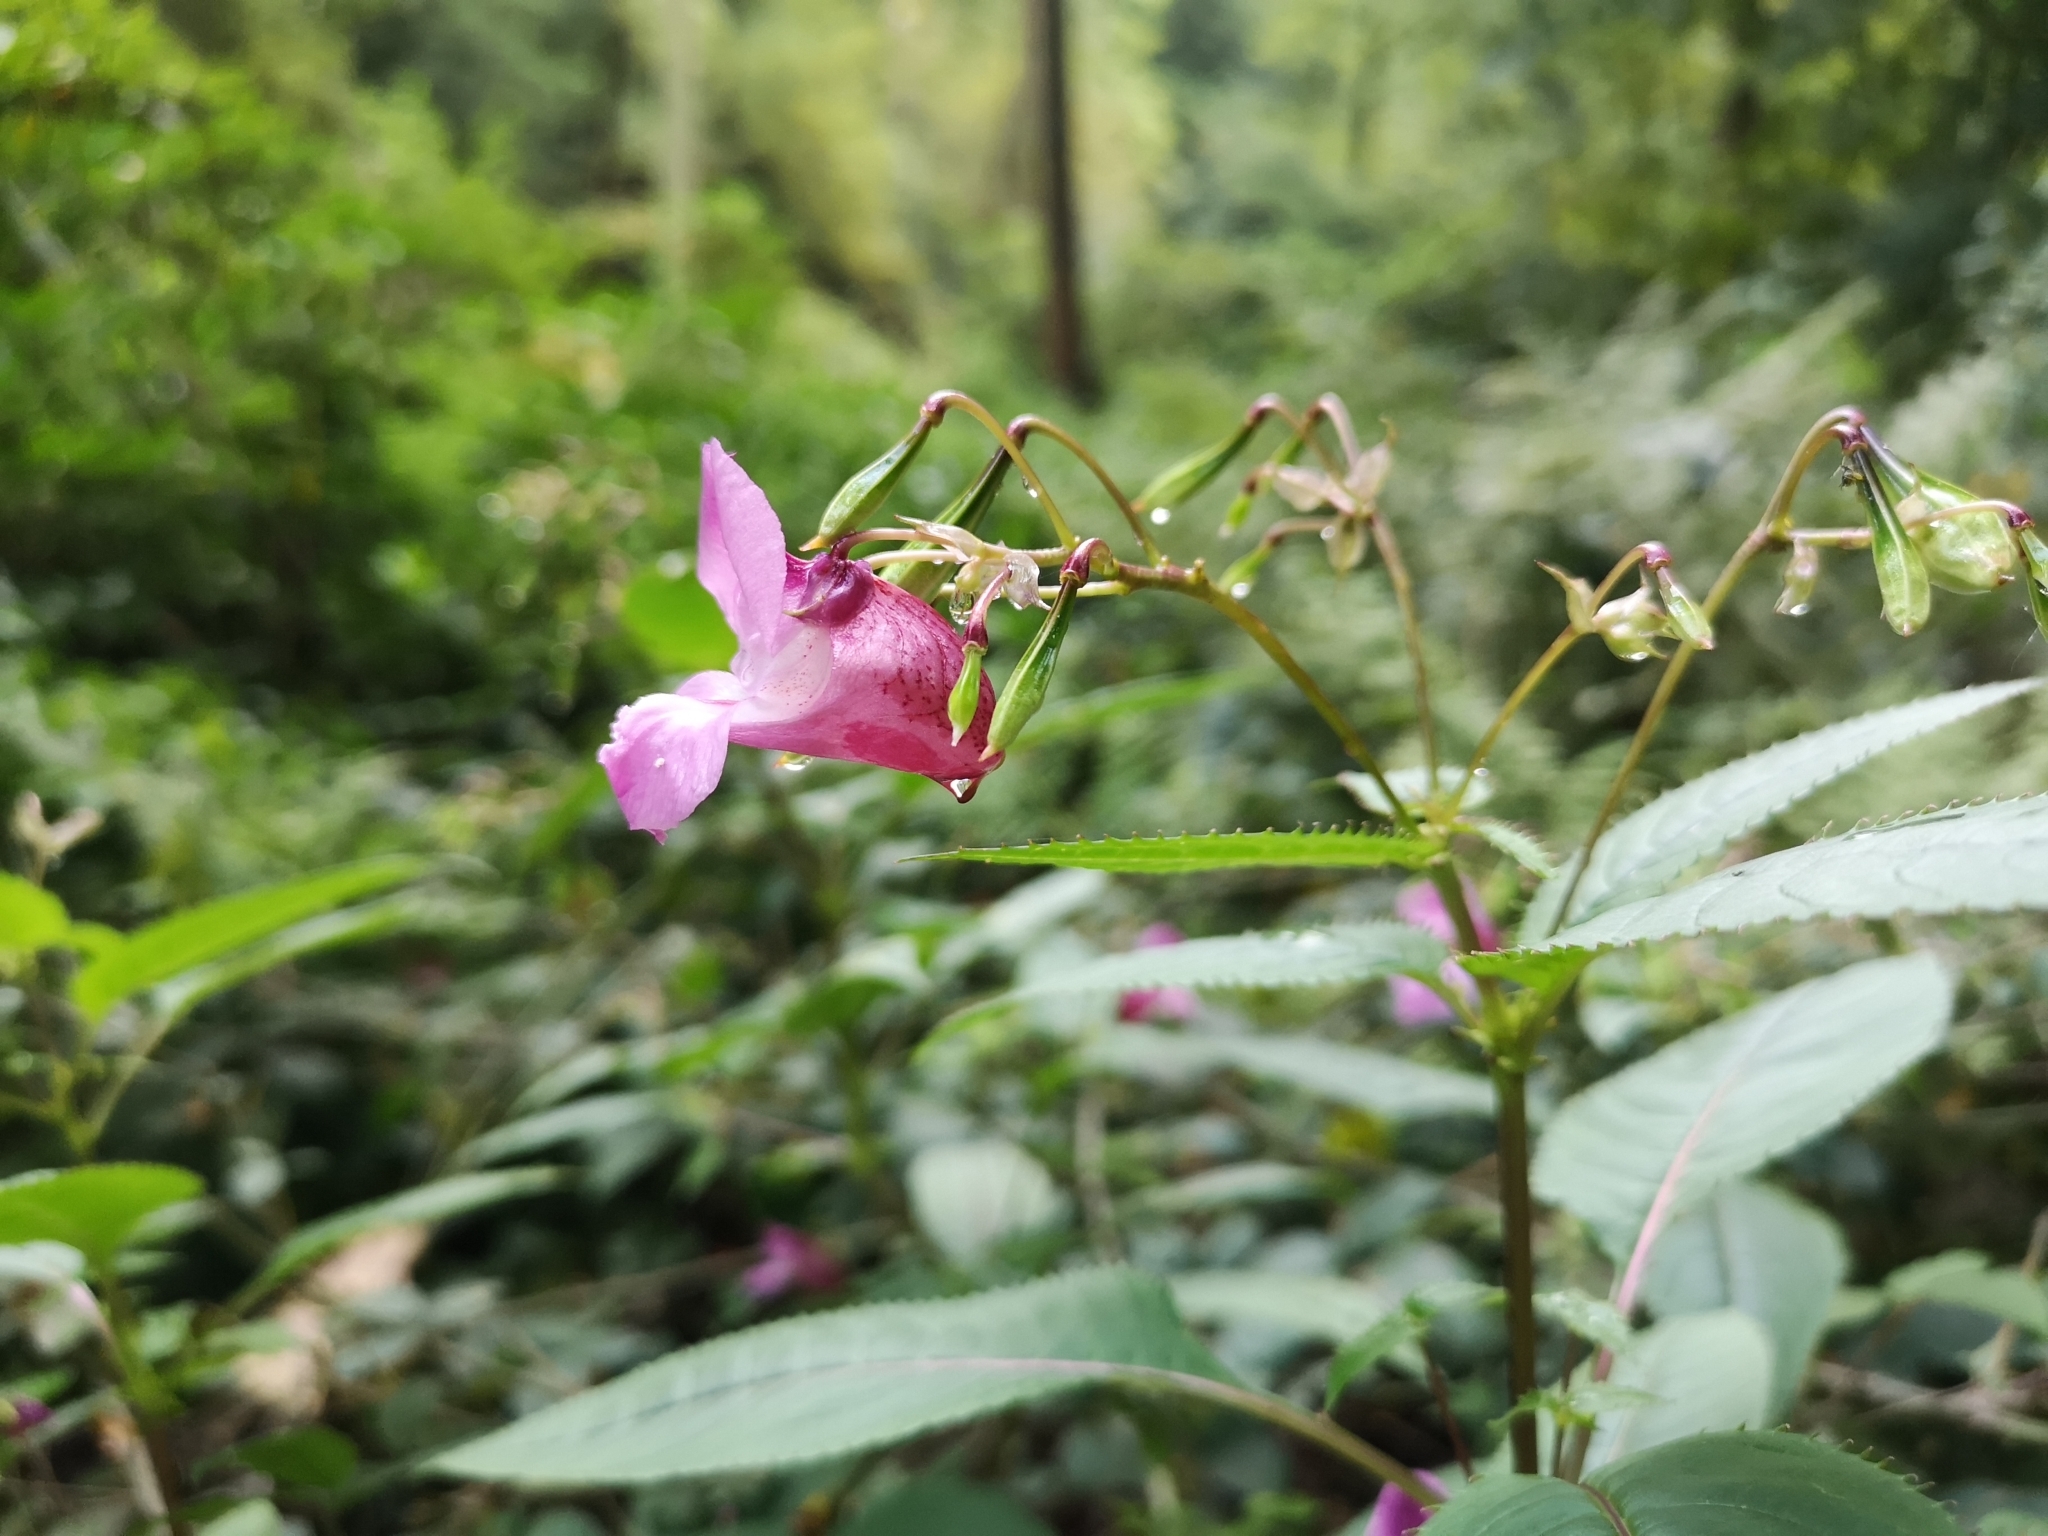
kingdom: Plantae
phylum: Tracheophyta
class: Magnoliopsida
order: Ericales
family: Balsaminaceae
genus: Impatiens
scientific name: Impatiens glandulifera
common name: Himalayan balsam
